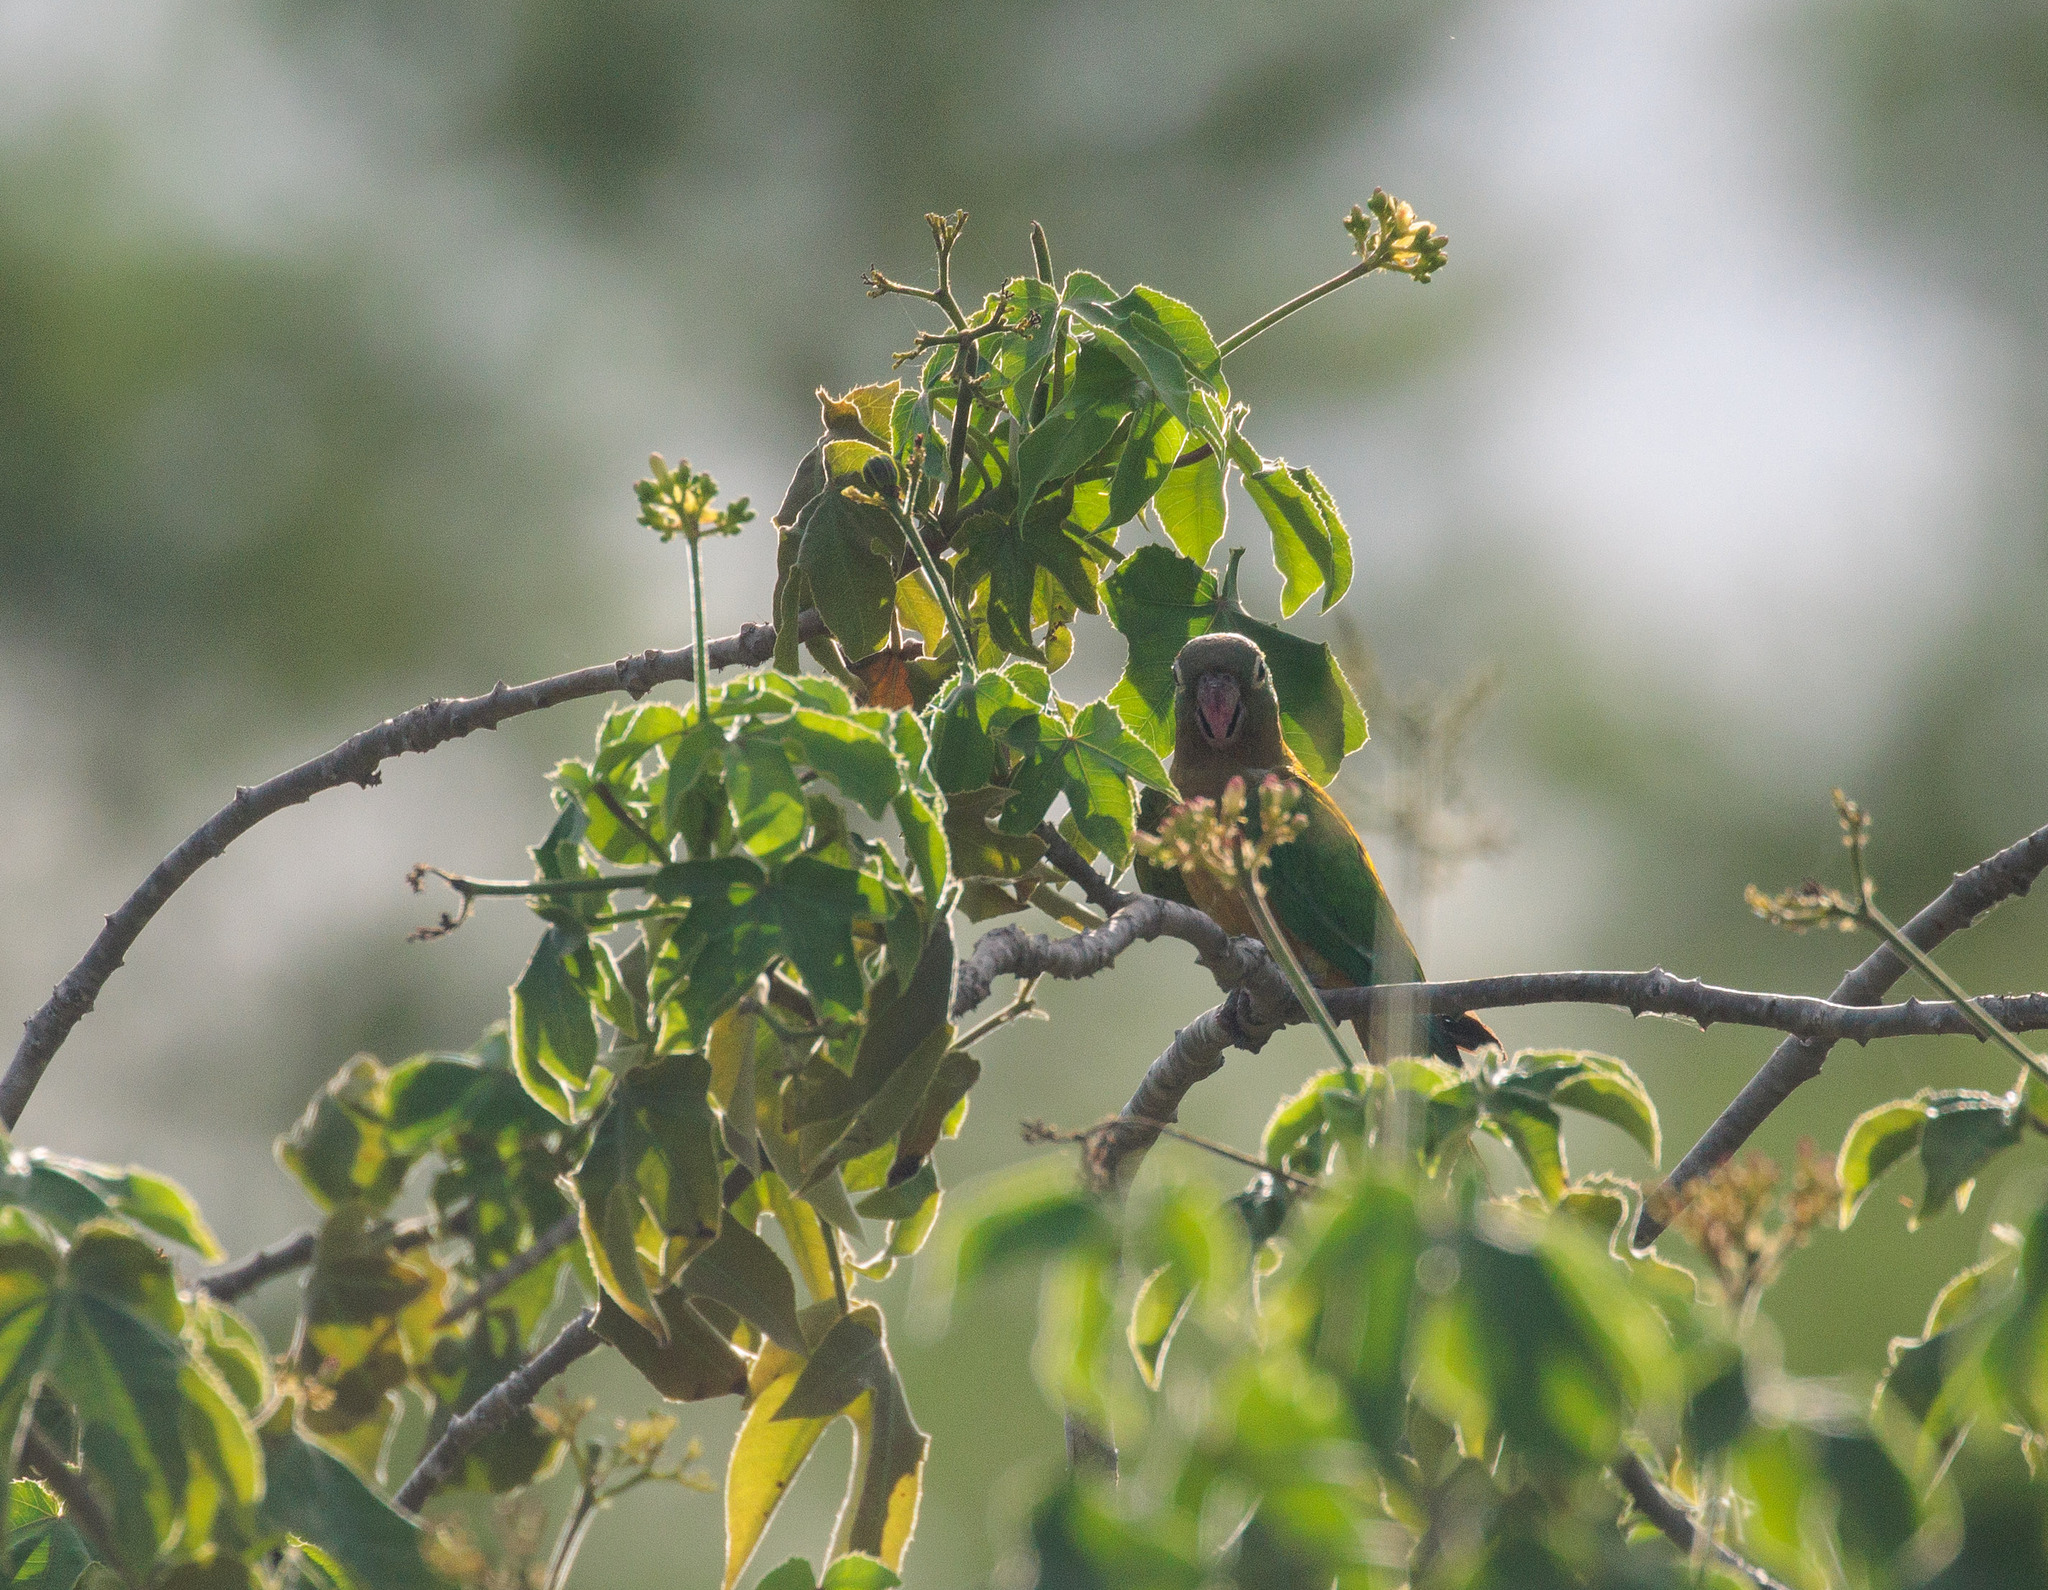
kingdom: Animalia
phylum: Chordata
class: Aves
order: Psittaciformes
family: Psittacidae
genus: Aratinga
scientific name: Aratinga cactorum
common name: Caatinga parakeet
